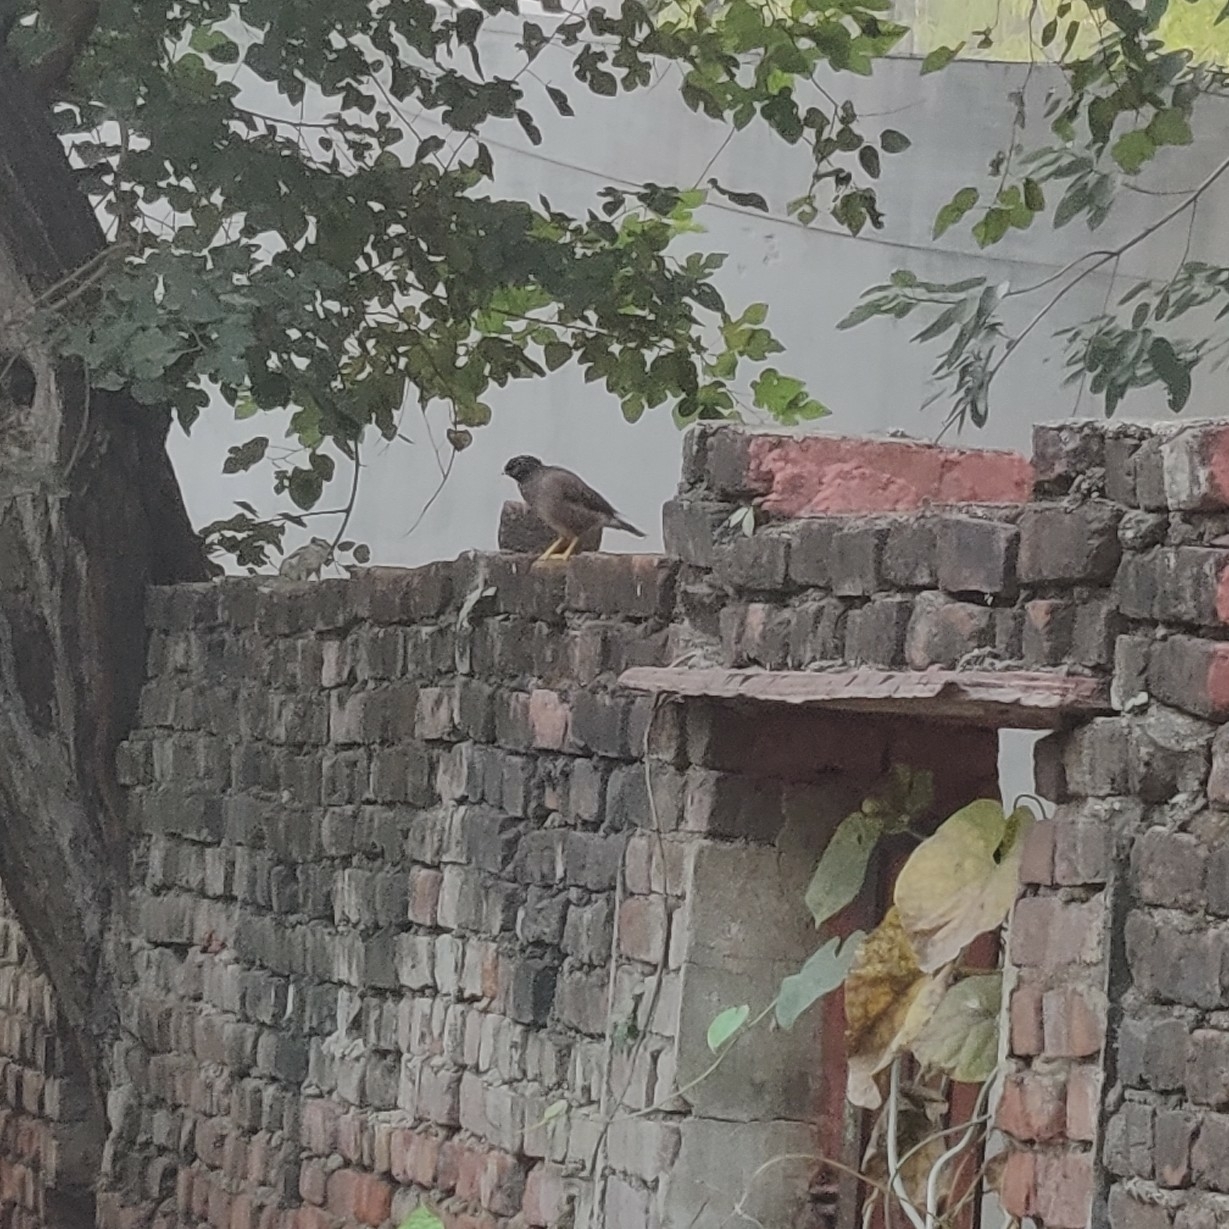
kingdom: Animalia
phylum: Chordata
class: Aves
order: Passeriformes
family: Sturnidae
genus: Acridotheres
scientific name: Acridotheres tristis
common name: Common myna
